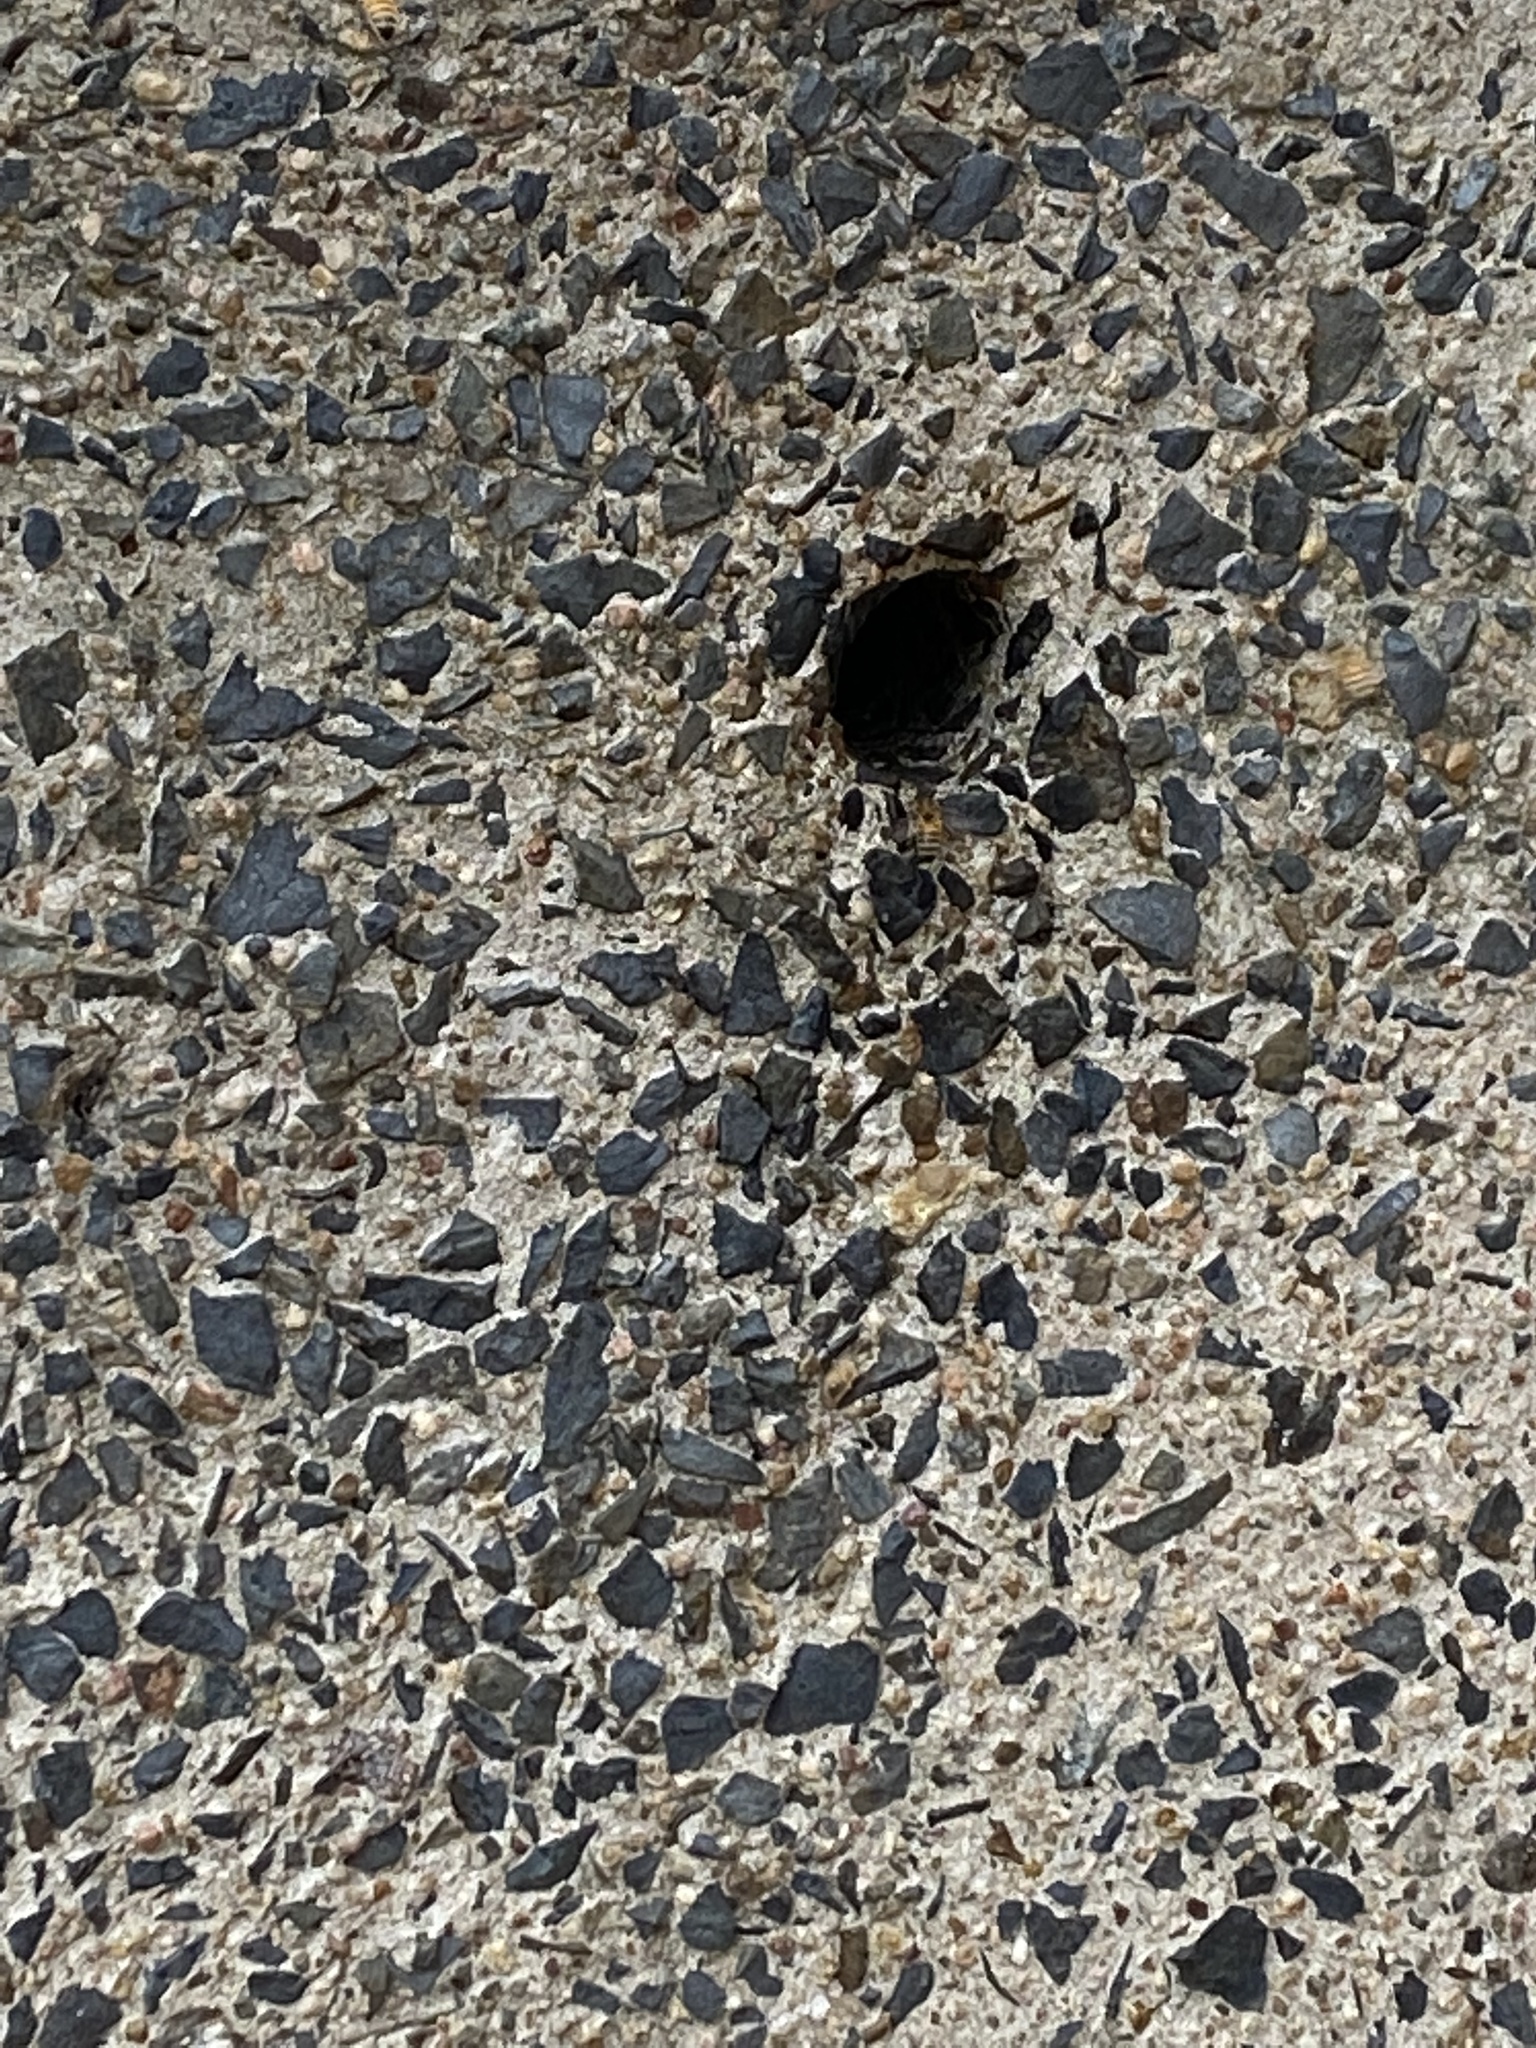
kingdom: Animalia
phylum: Arthropoda
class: Insecta
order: Hymenoptera
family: Apidae
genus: Apis
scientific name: Apis mellifera
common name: Honey bee
